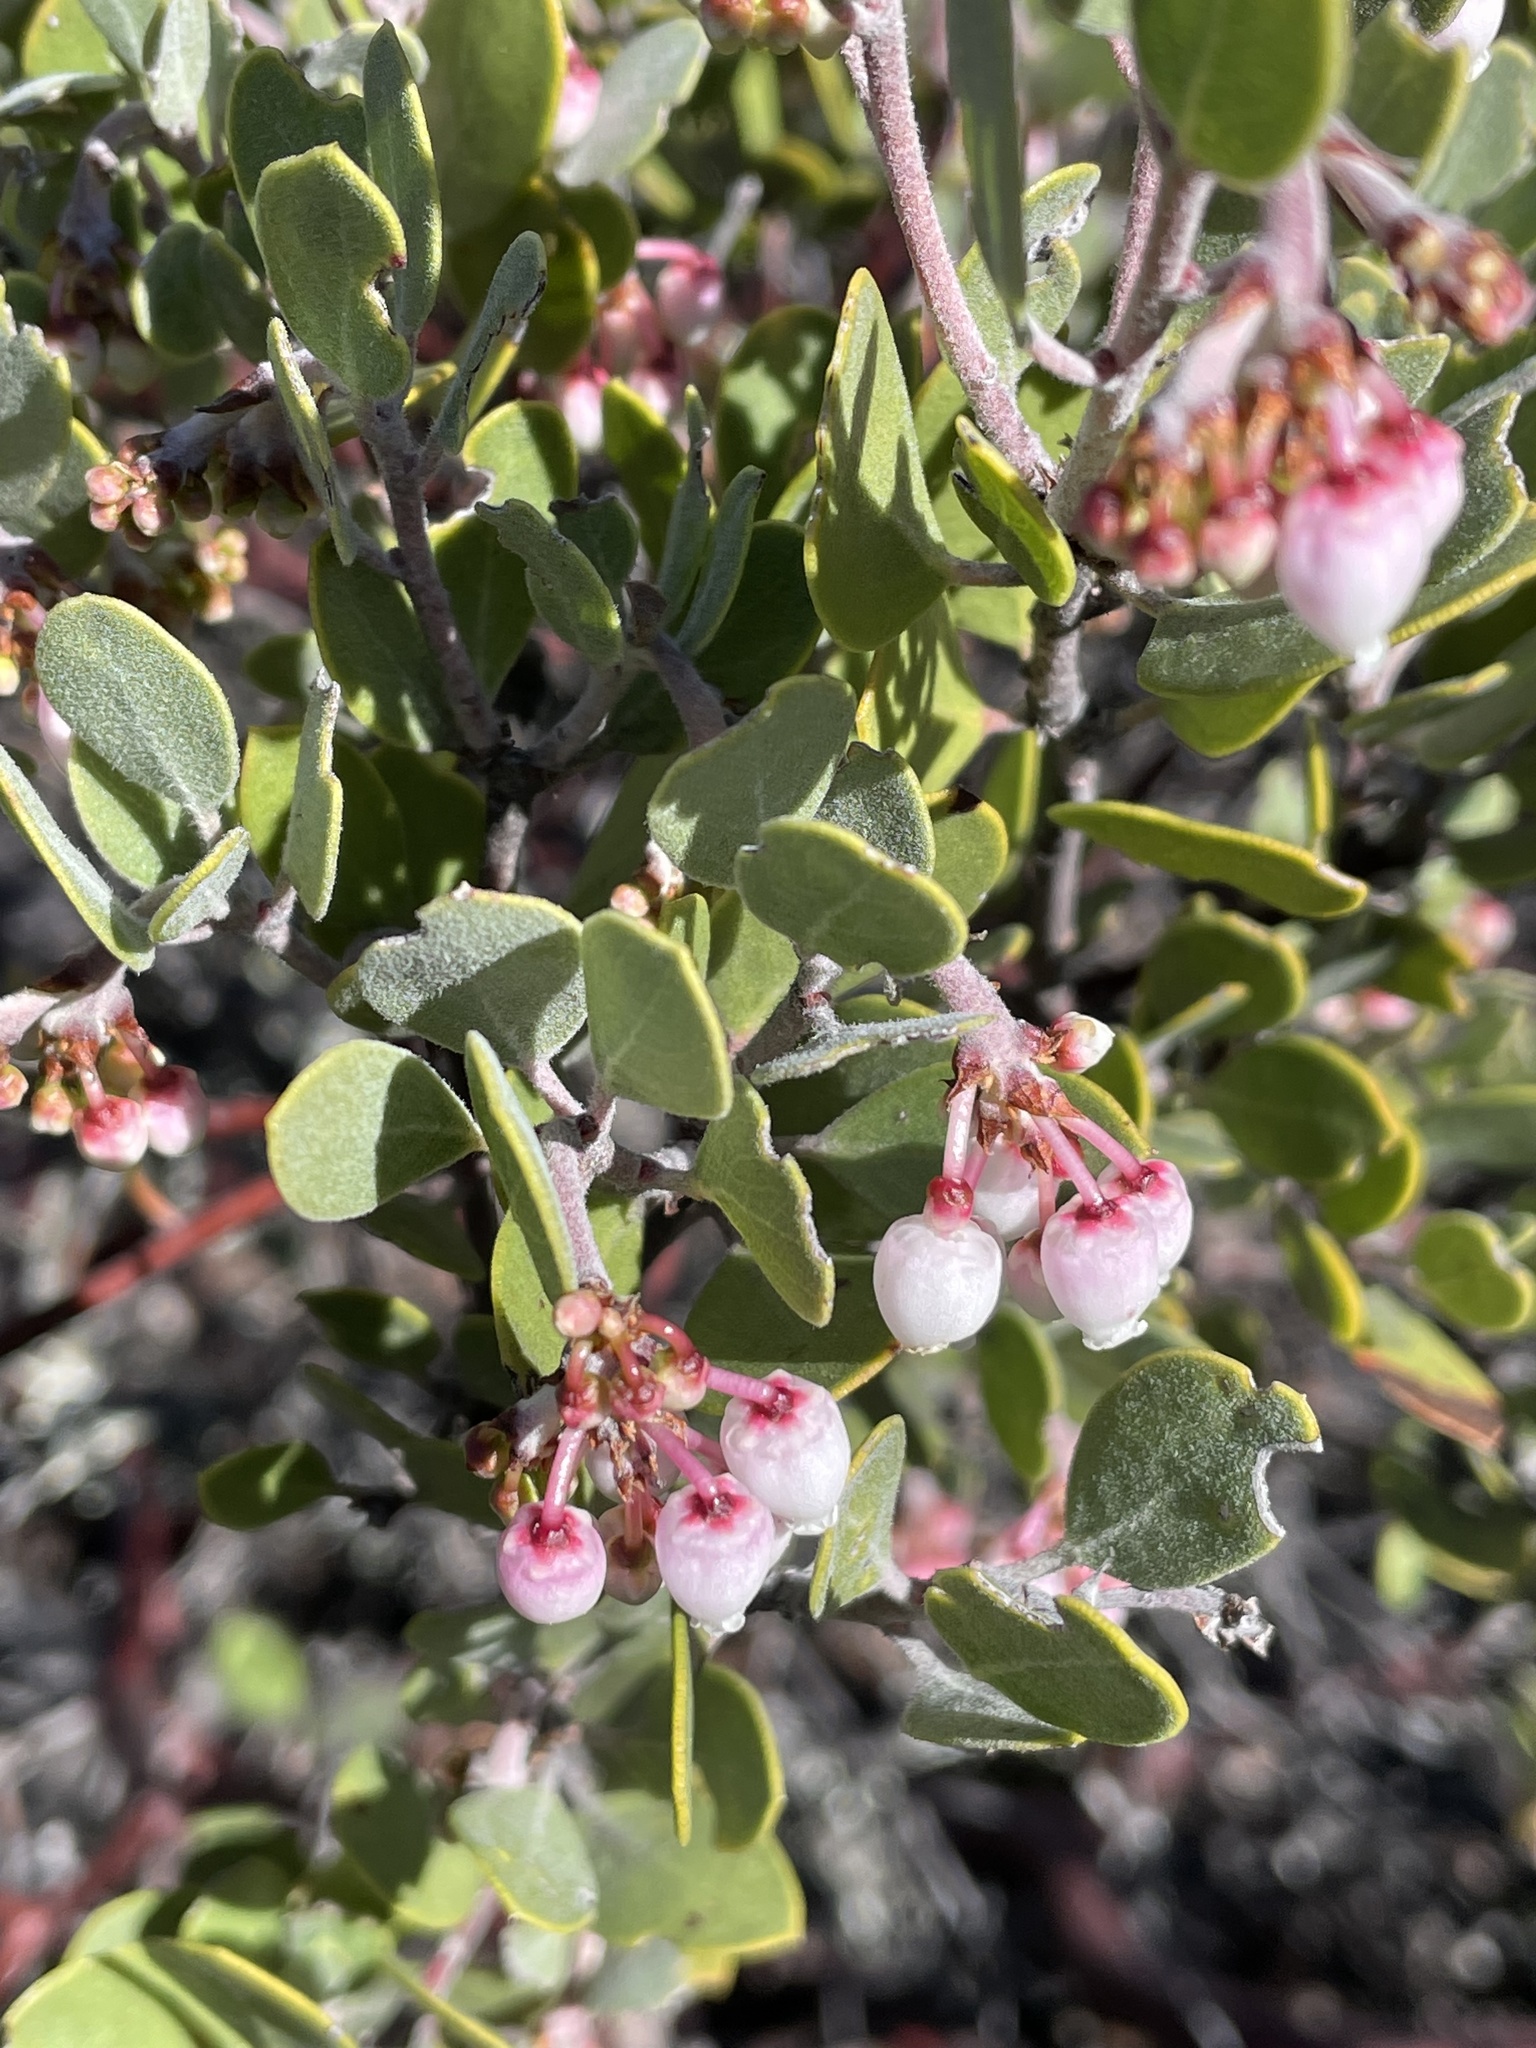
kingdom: Plantae
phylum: Tracheophyta
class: Magnoliopsida
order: Ericales
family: Ericaceae
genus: Arctostaphylos
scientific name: Arctostaphylos montana
